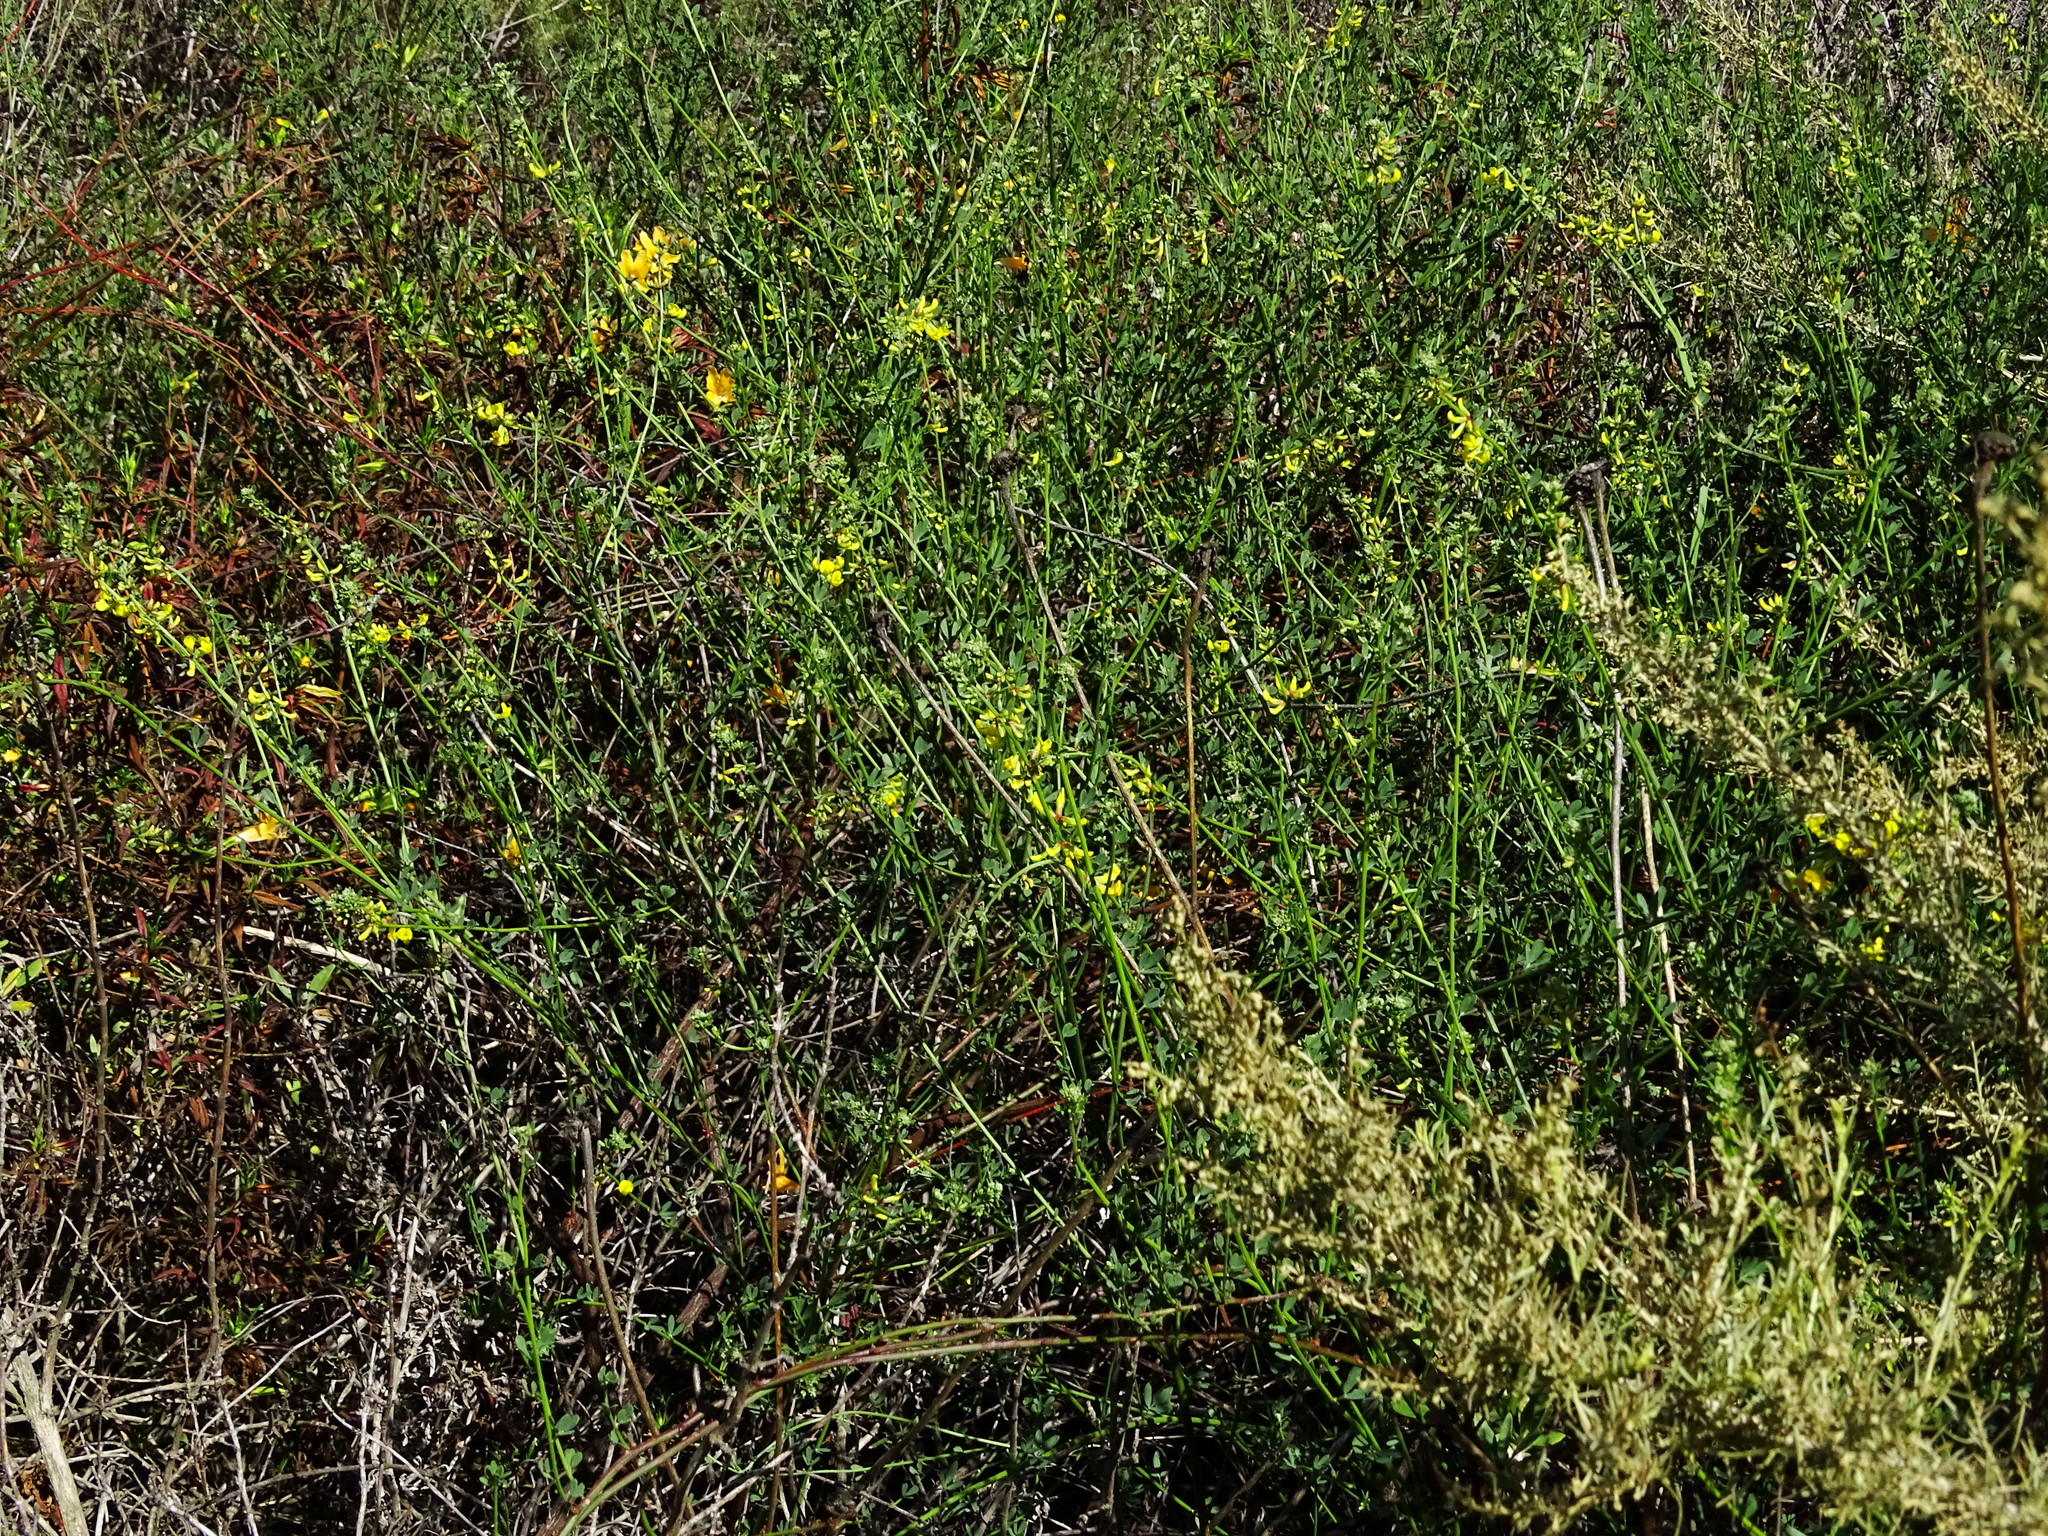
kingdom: Plantae
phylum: Tracheophyta
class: Magnoliopsida
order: Fabales
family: Fabaceae
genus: Acmispon
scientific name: Acmispon glaber
